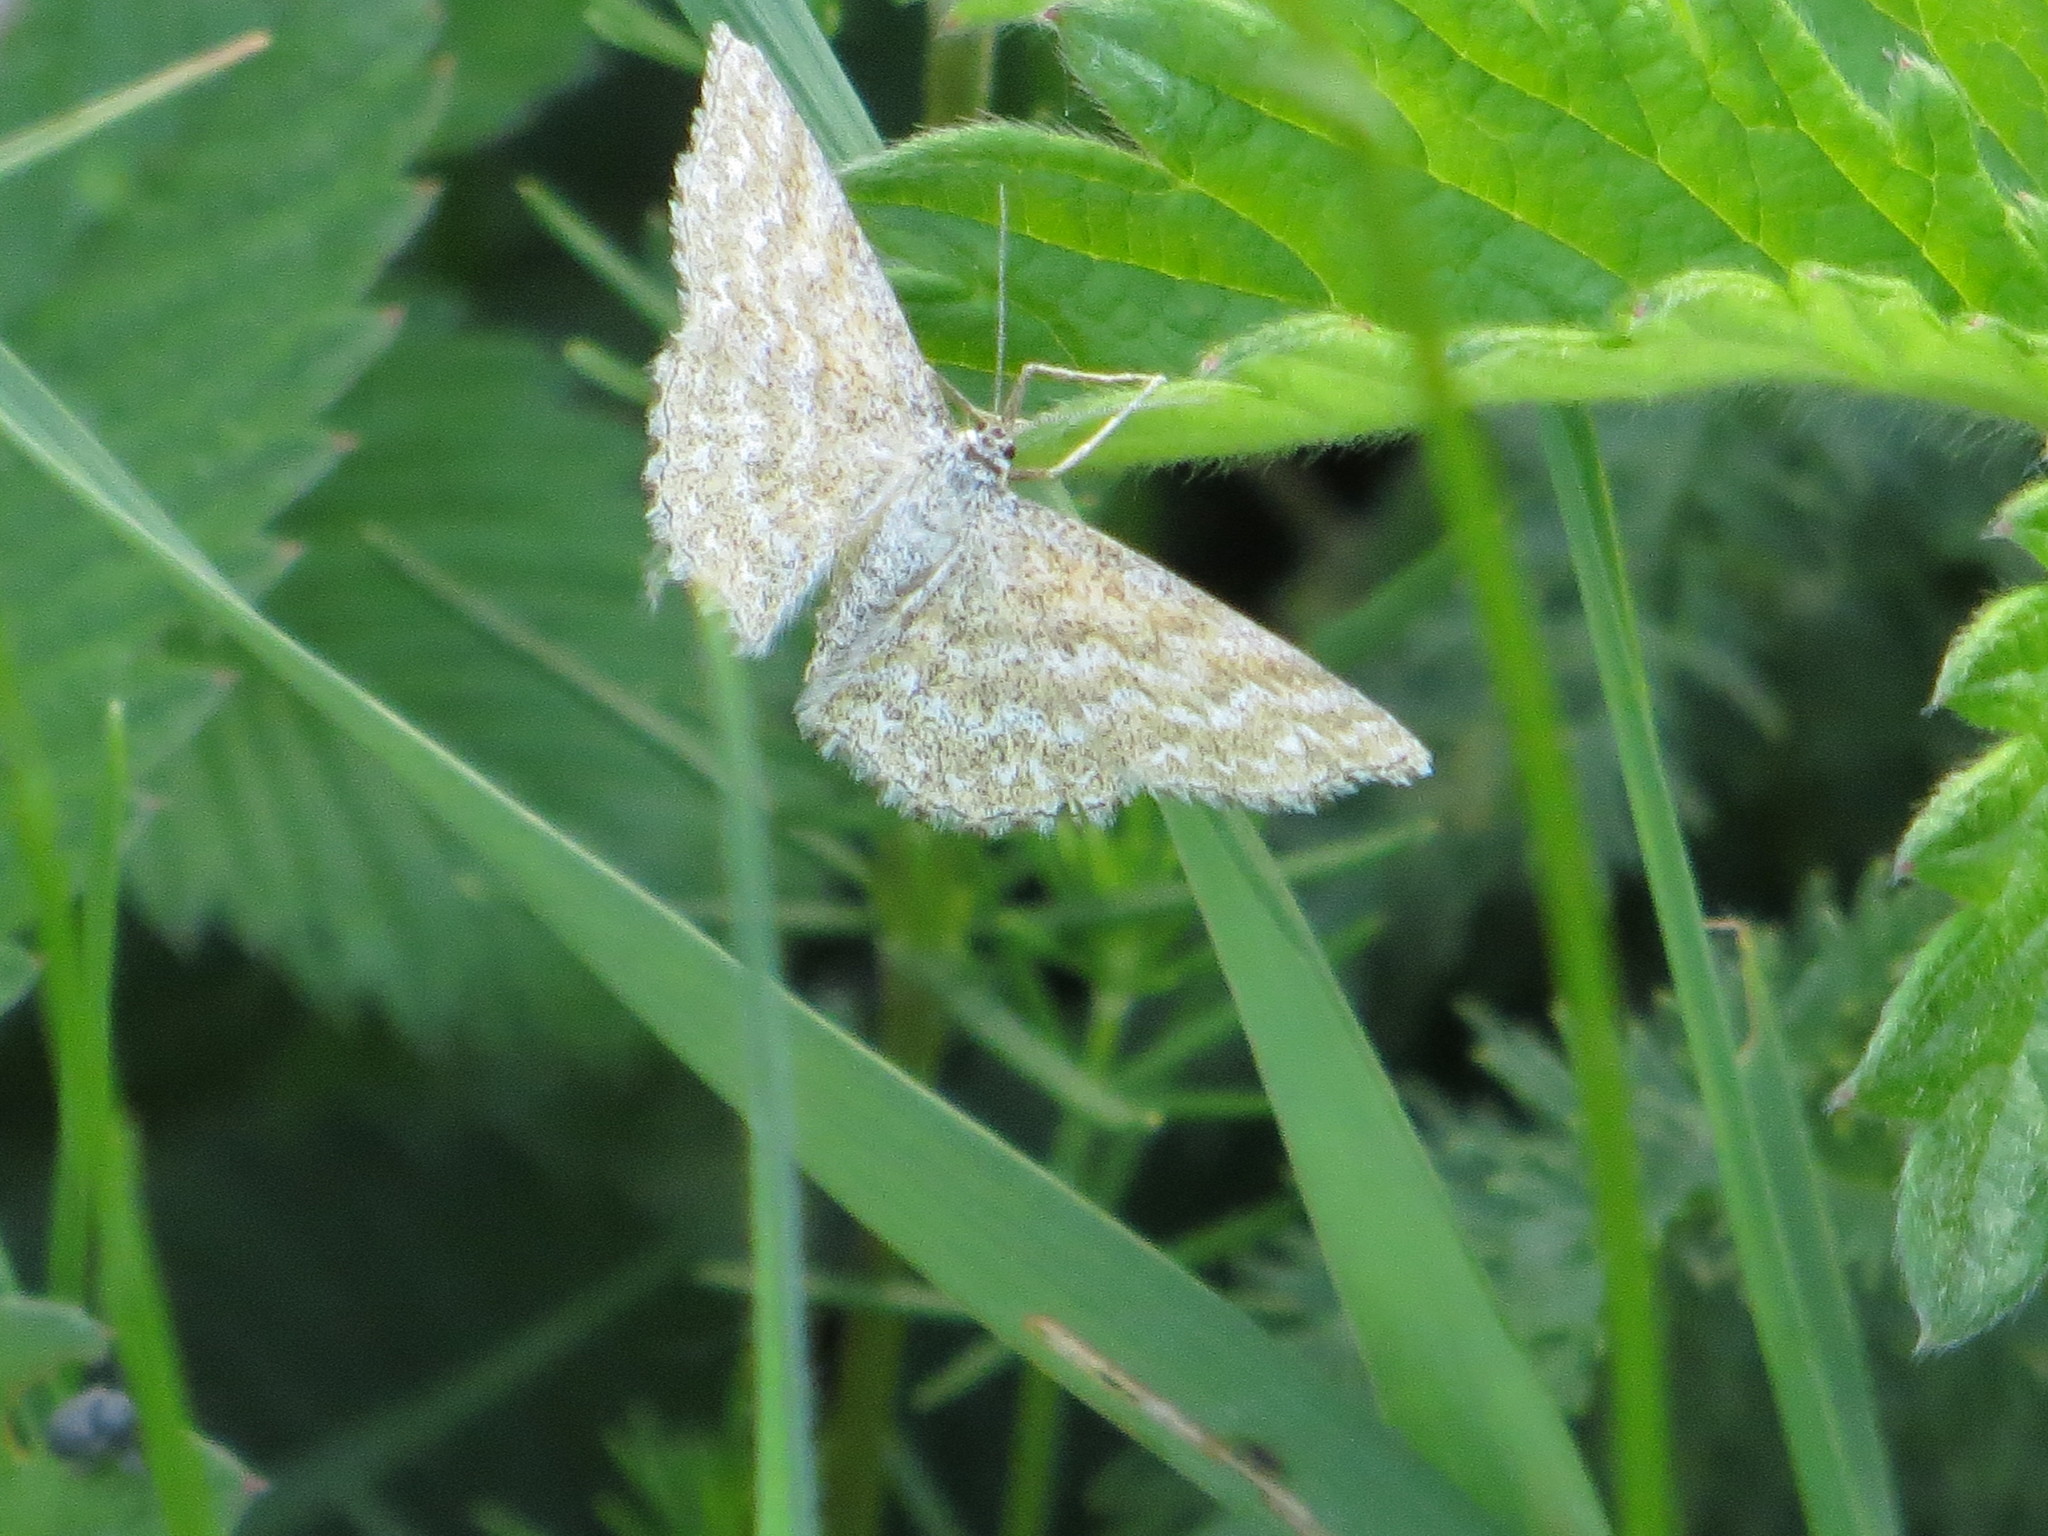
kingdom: Animalia
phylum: Arthropoda
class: Insecta
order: Lepidoptera
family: Geometridae
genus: Scopula
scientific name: Scopula immorata
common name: Lewes wave
